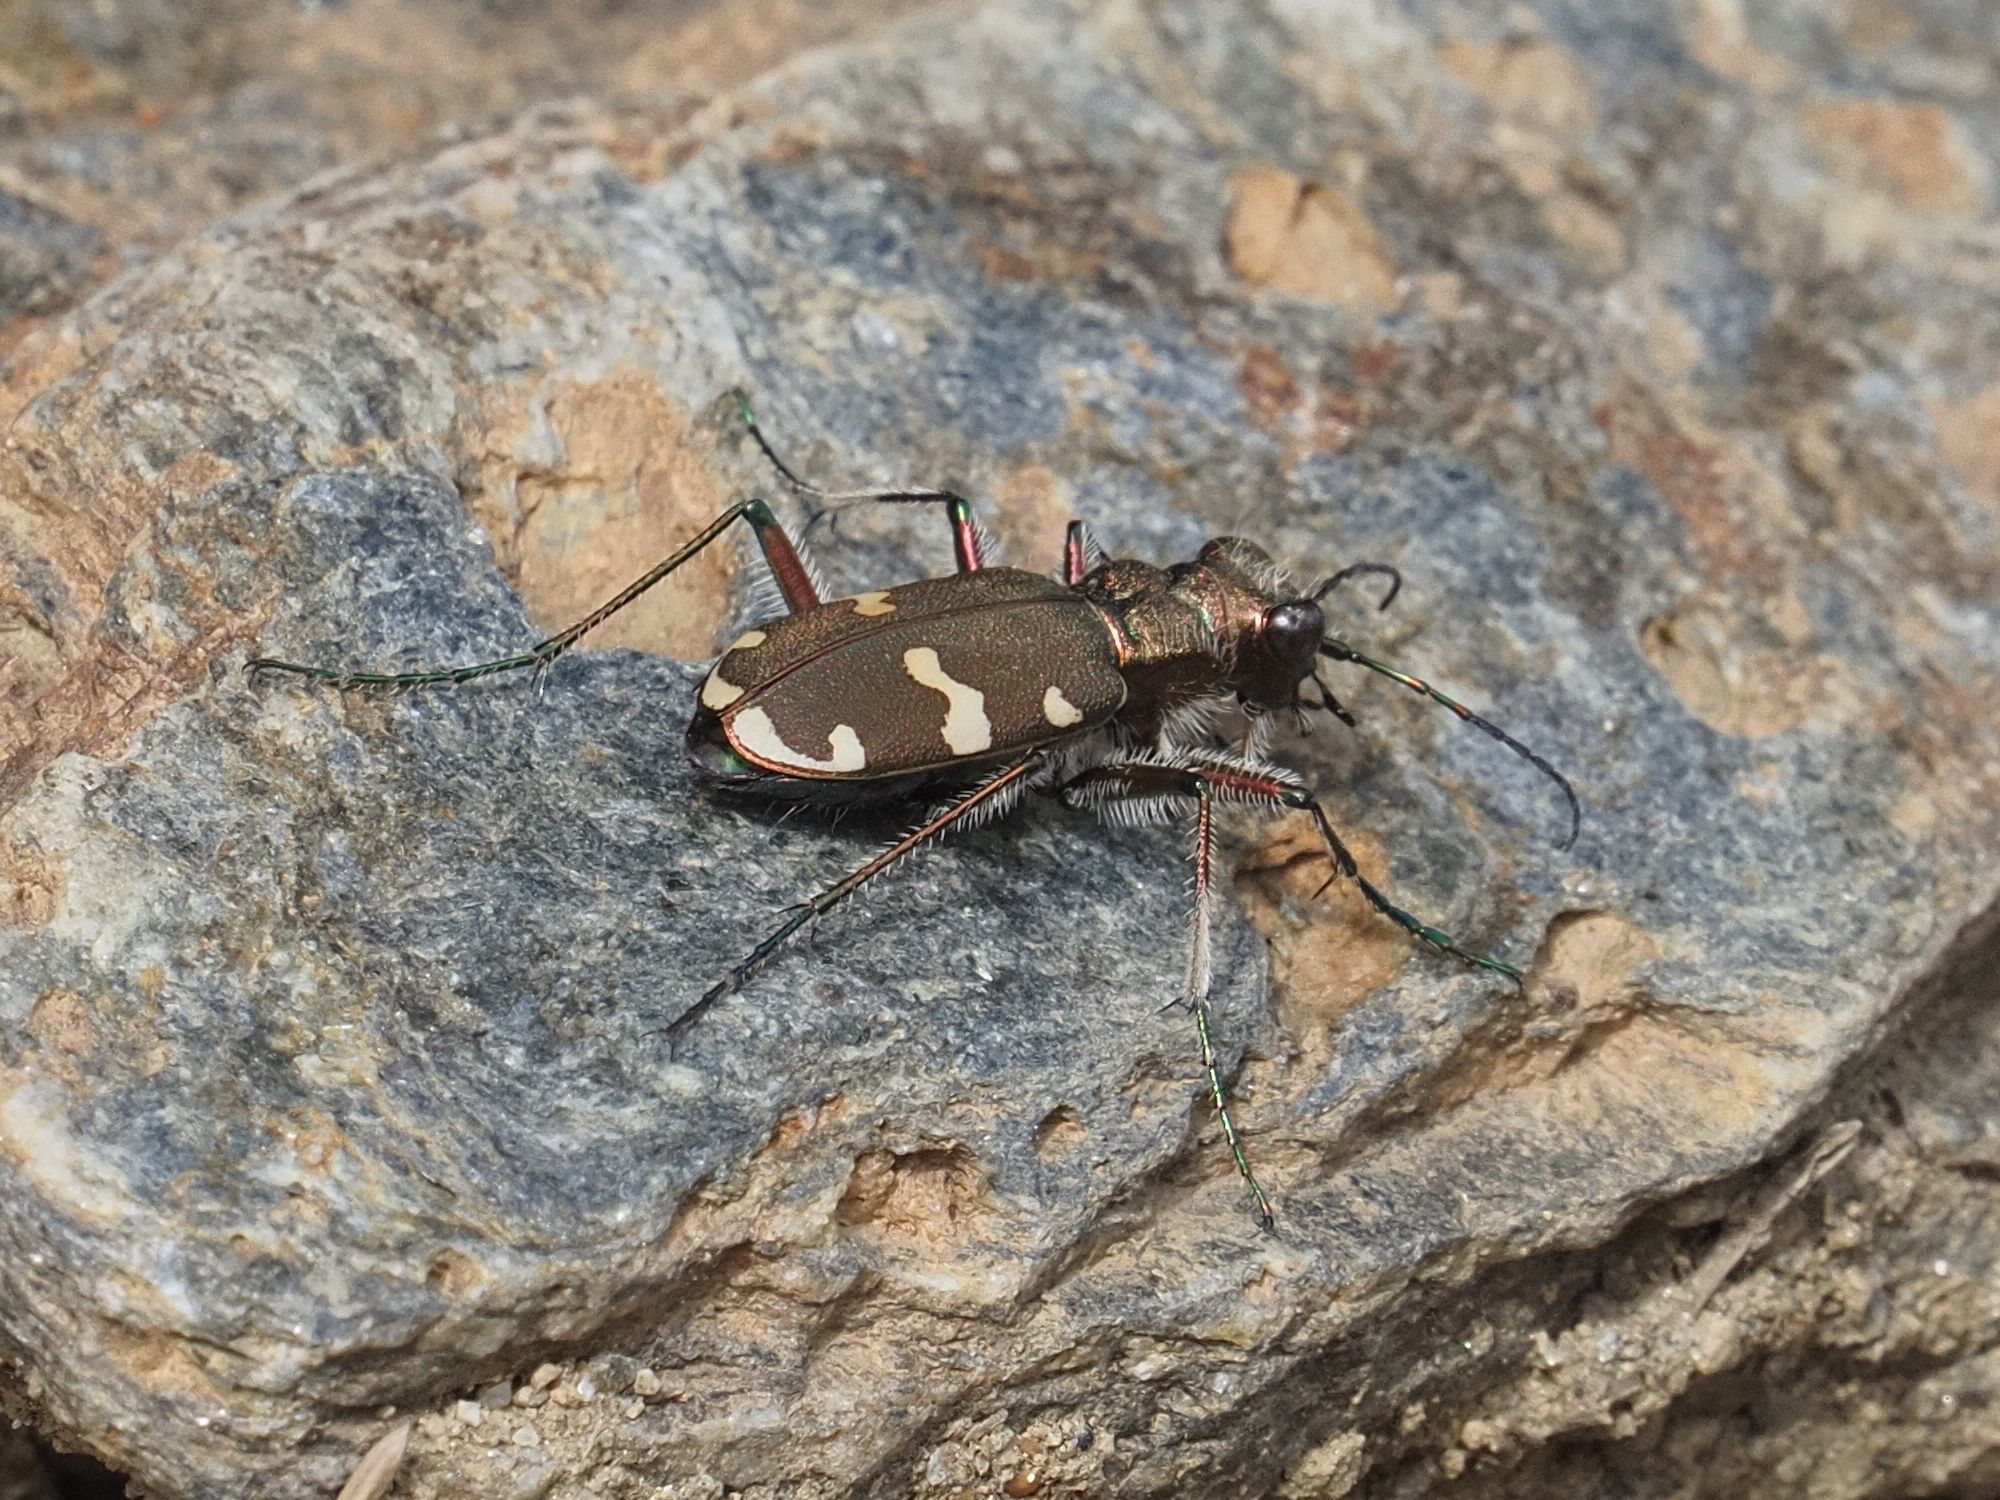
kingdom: Animalia
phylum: Arthropoda
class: Insecta
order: Coleoptera
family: Carabidae
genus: Cicindela
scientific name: Cicindela sylvicola
